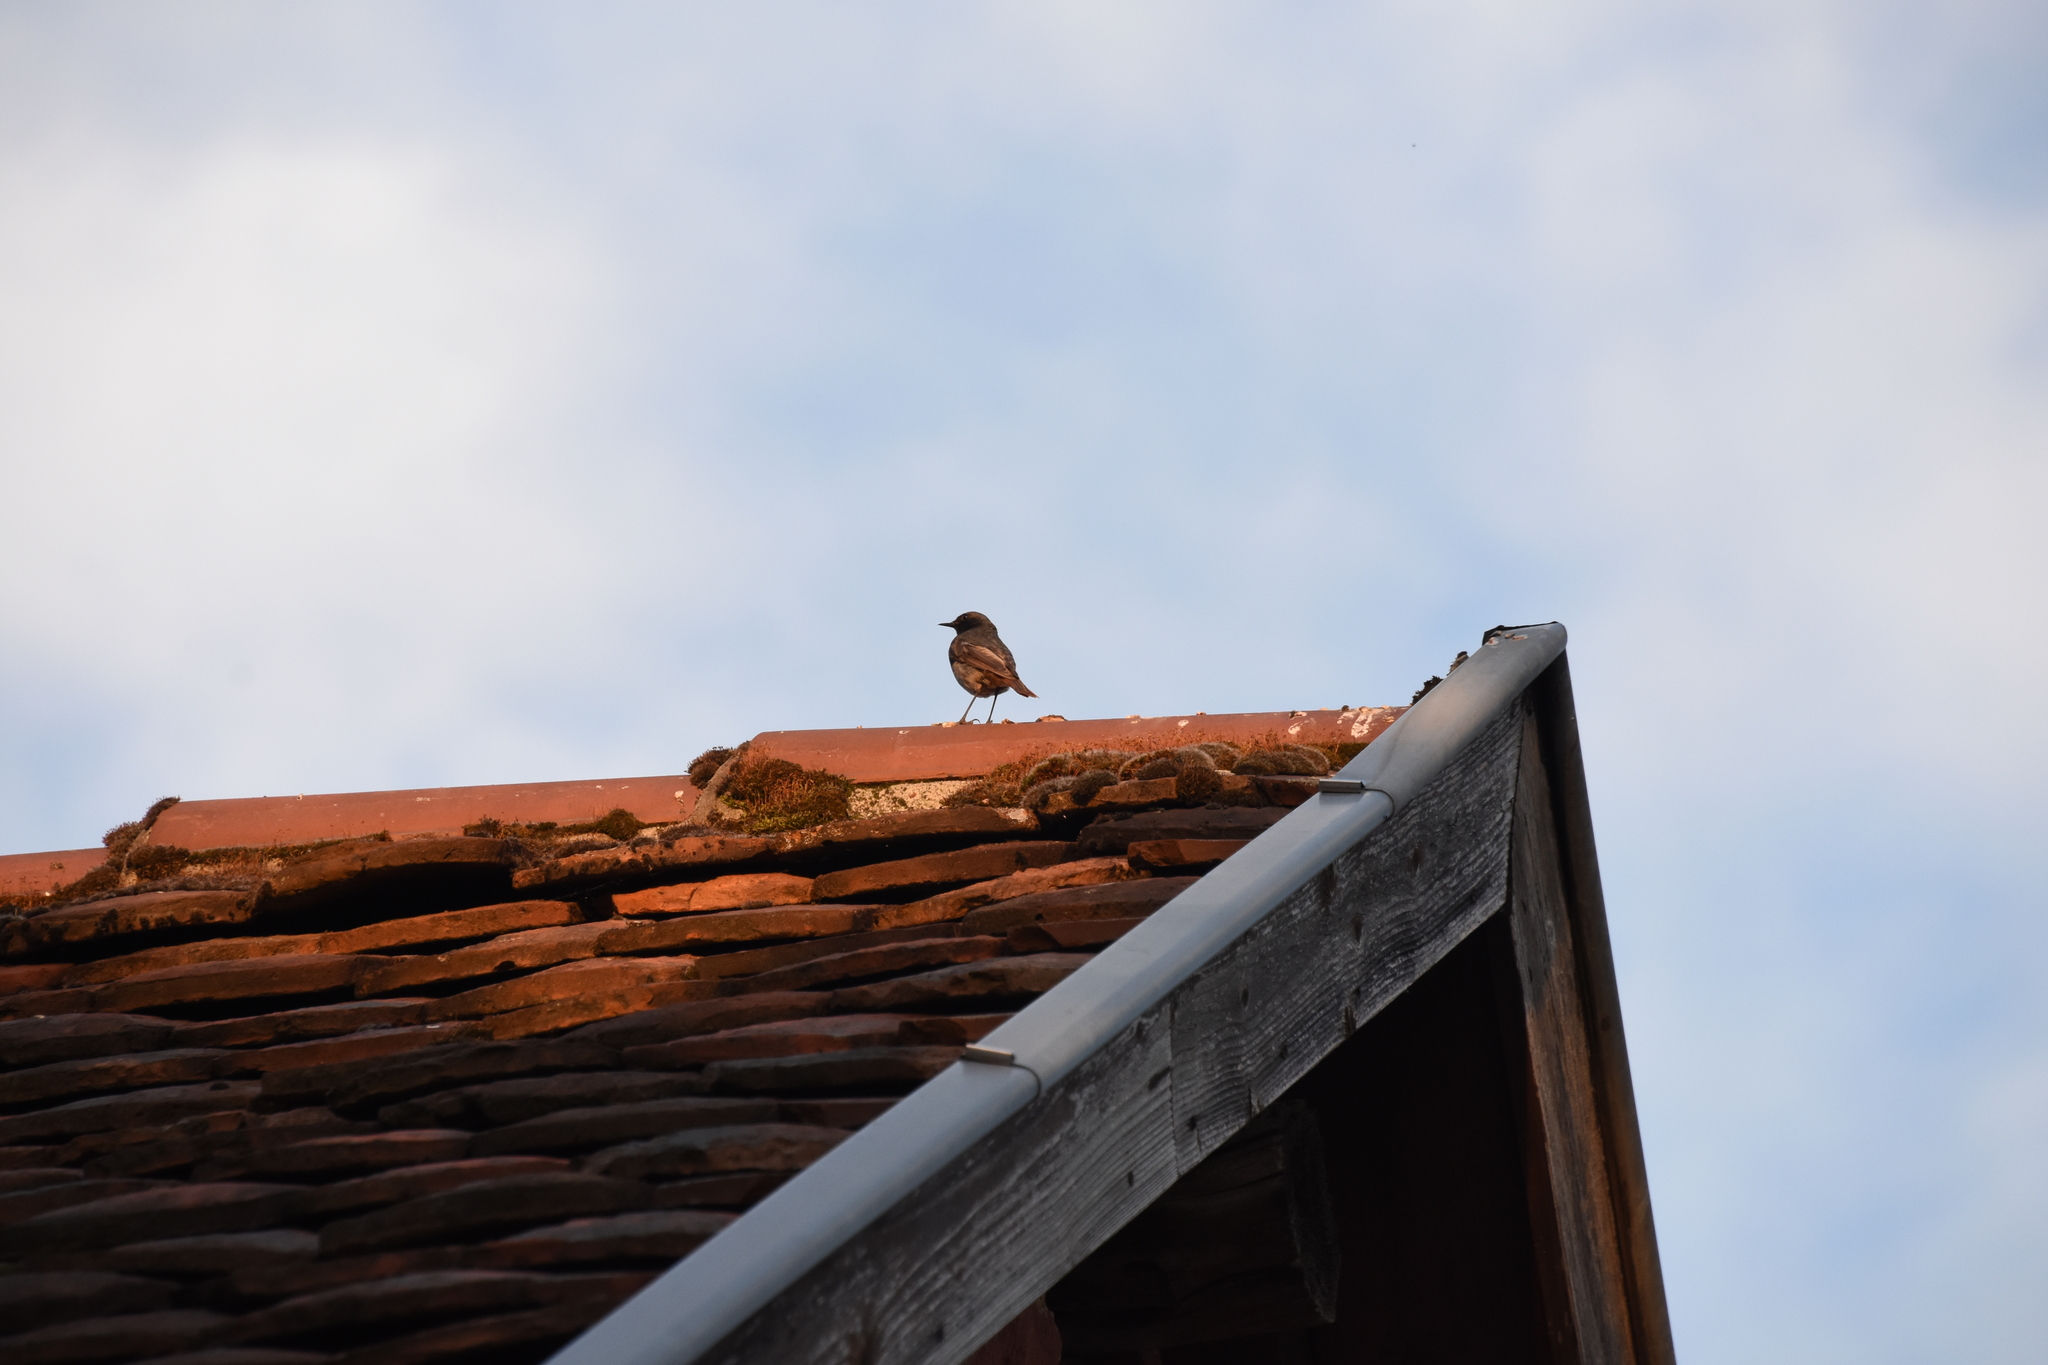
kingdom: Animalia
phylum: Chordata
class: Aves
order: Passeriformes
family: Muscicapidae
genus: Phoenicurus
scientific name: Phoenicurus ochruros
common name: Black redstart
